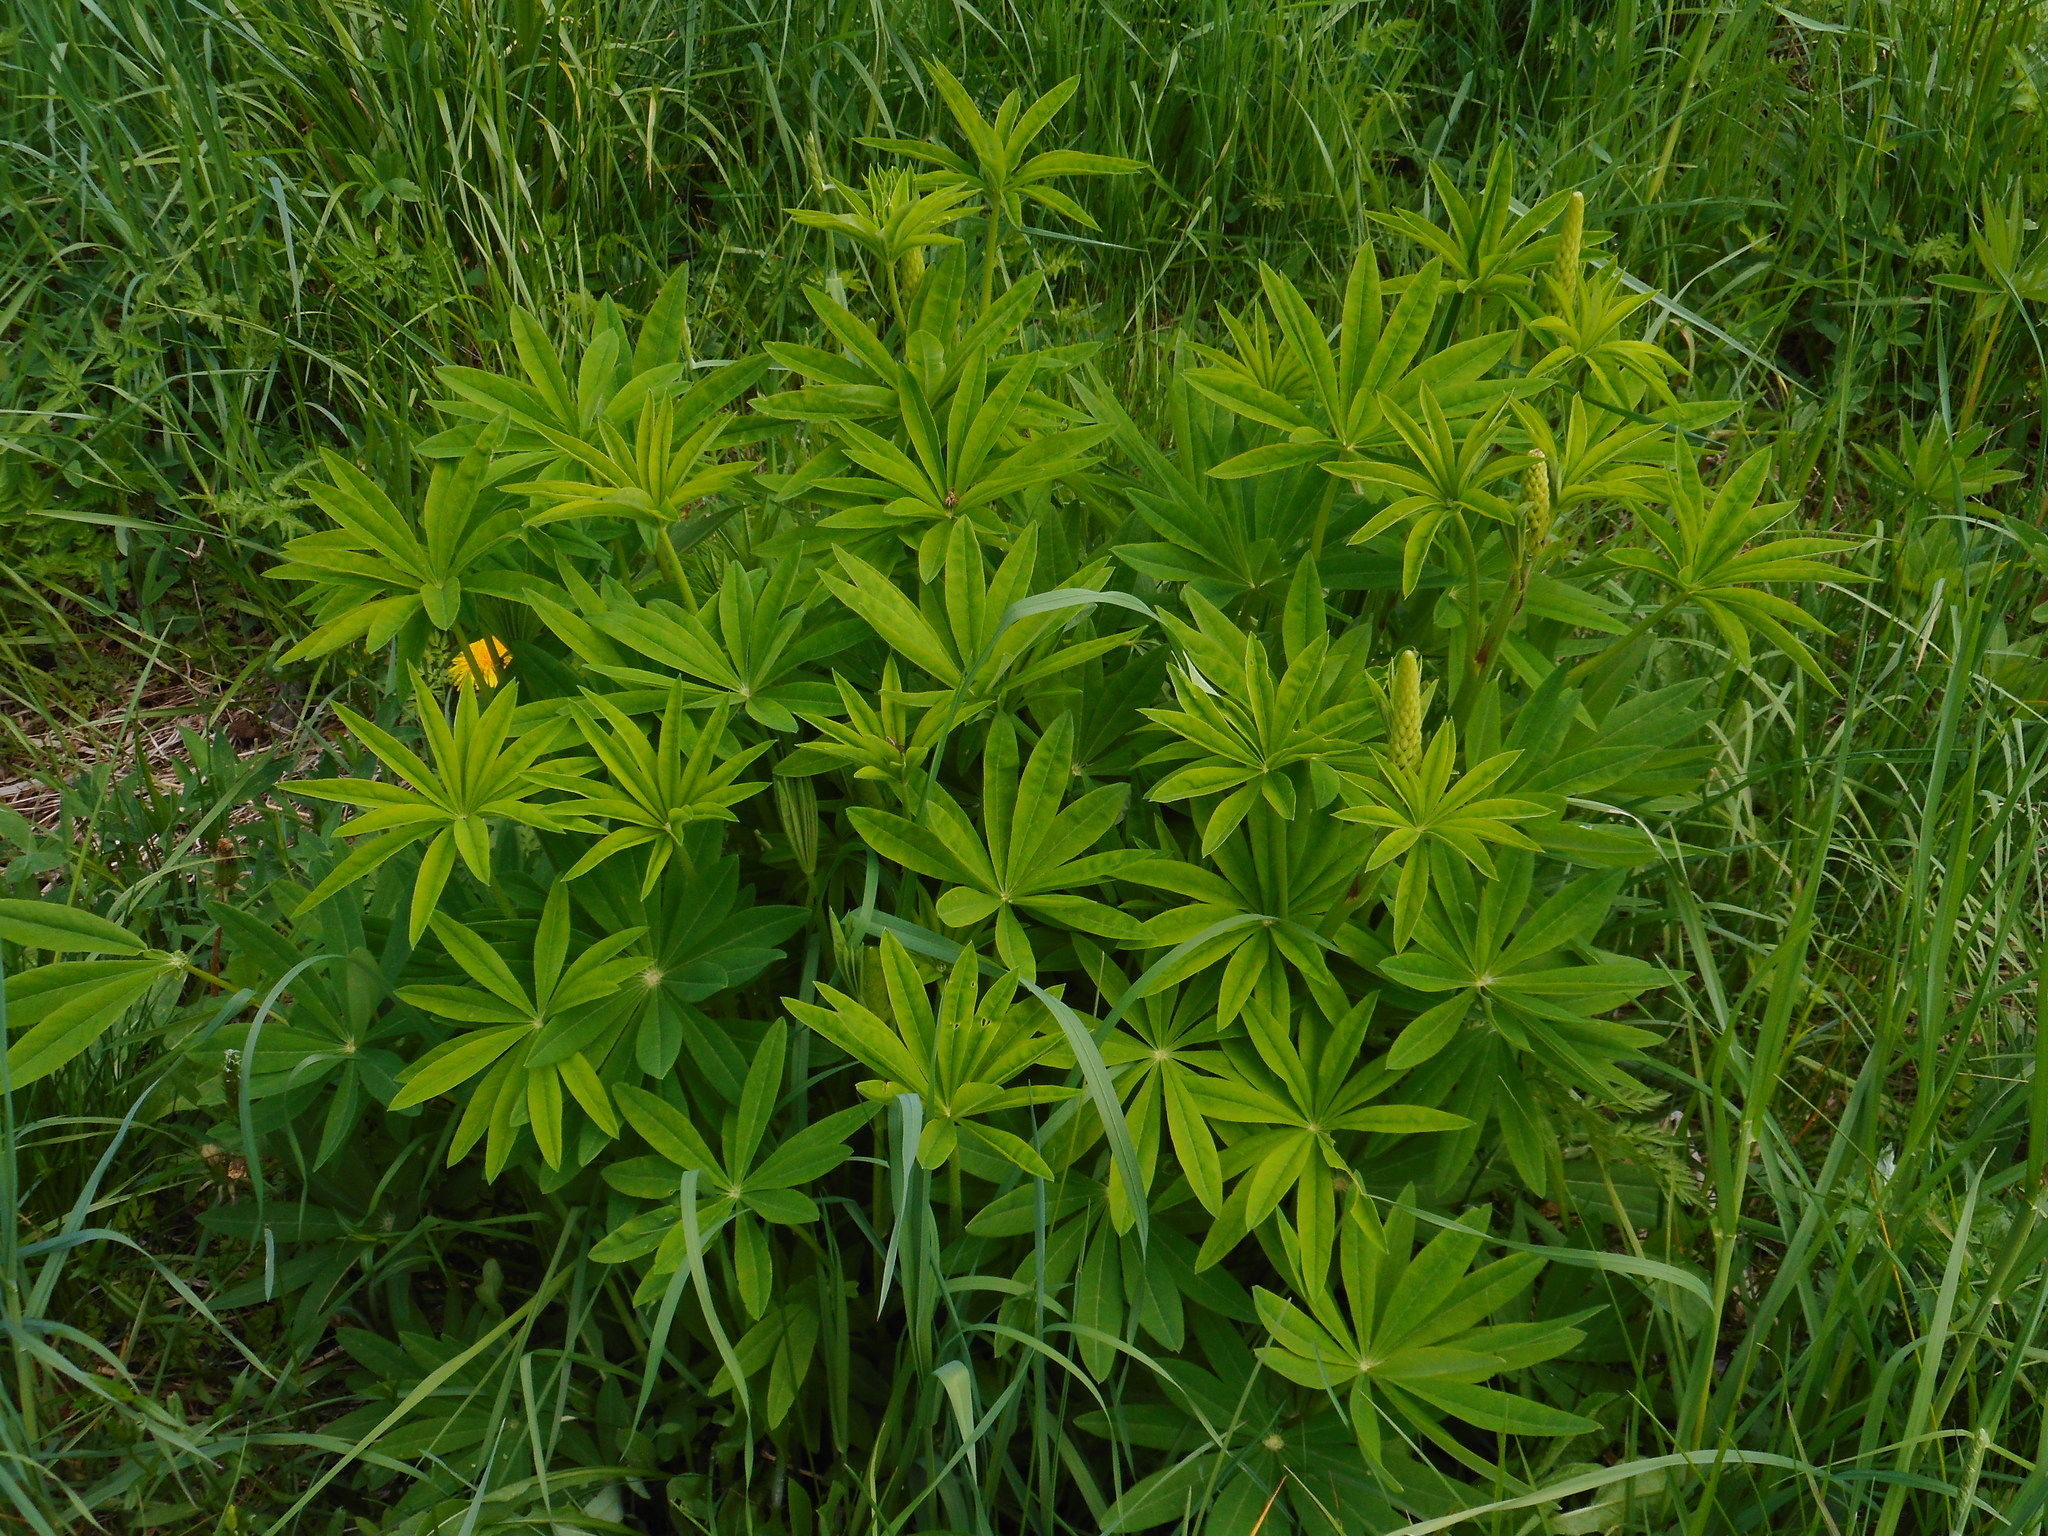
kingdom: Plantae
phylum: Tracheophyta
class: Magnoliopsida
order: Fabales
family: Fabaceae
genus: Lupinus
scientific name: Lupinus polyphyllus
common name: Garden lupin
